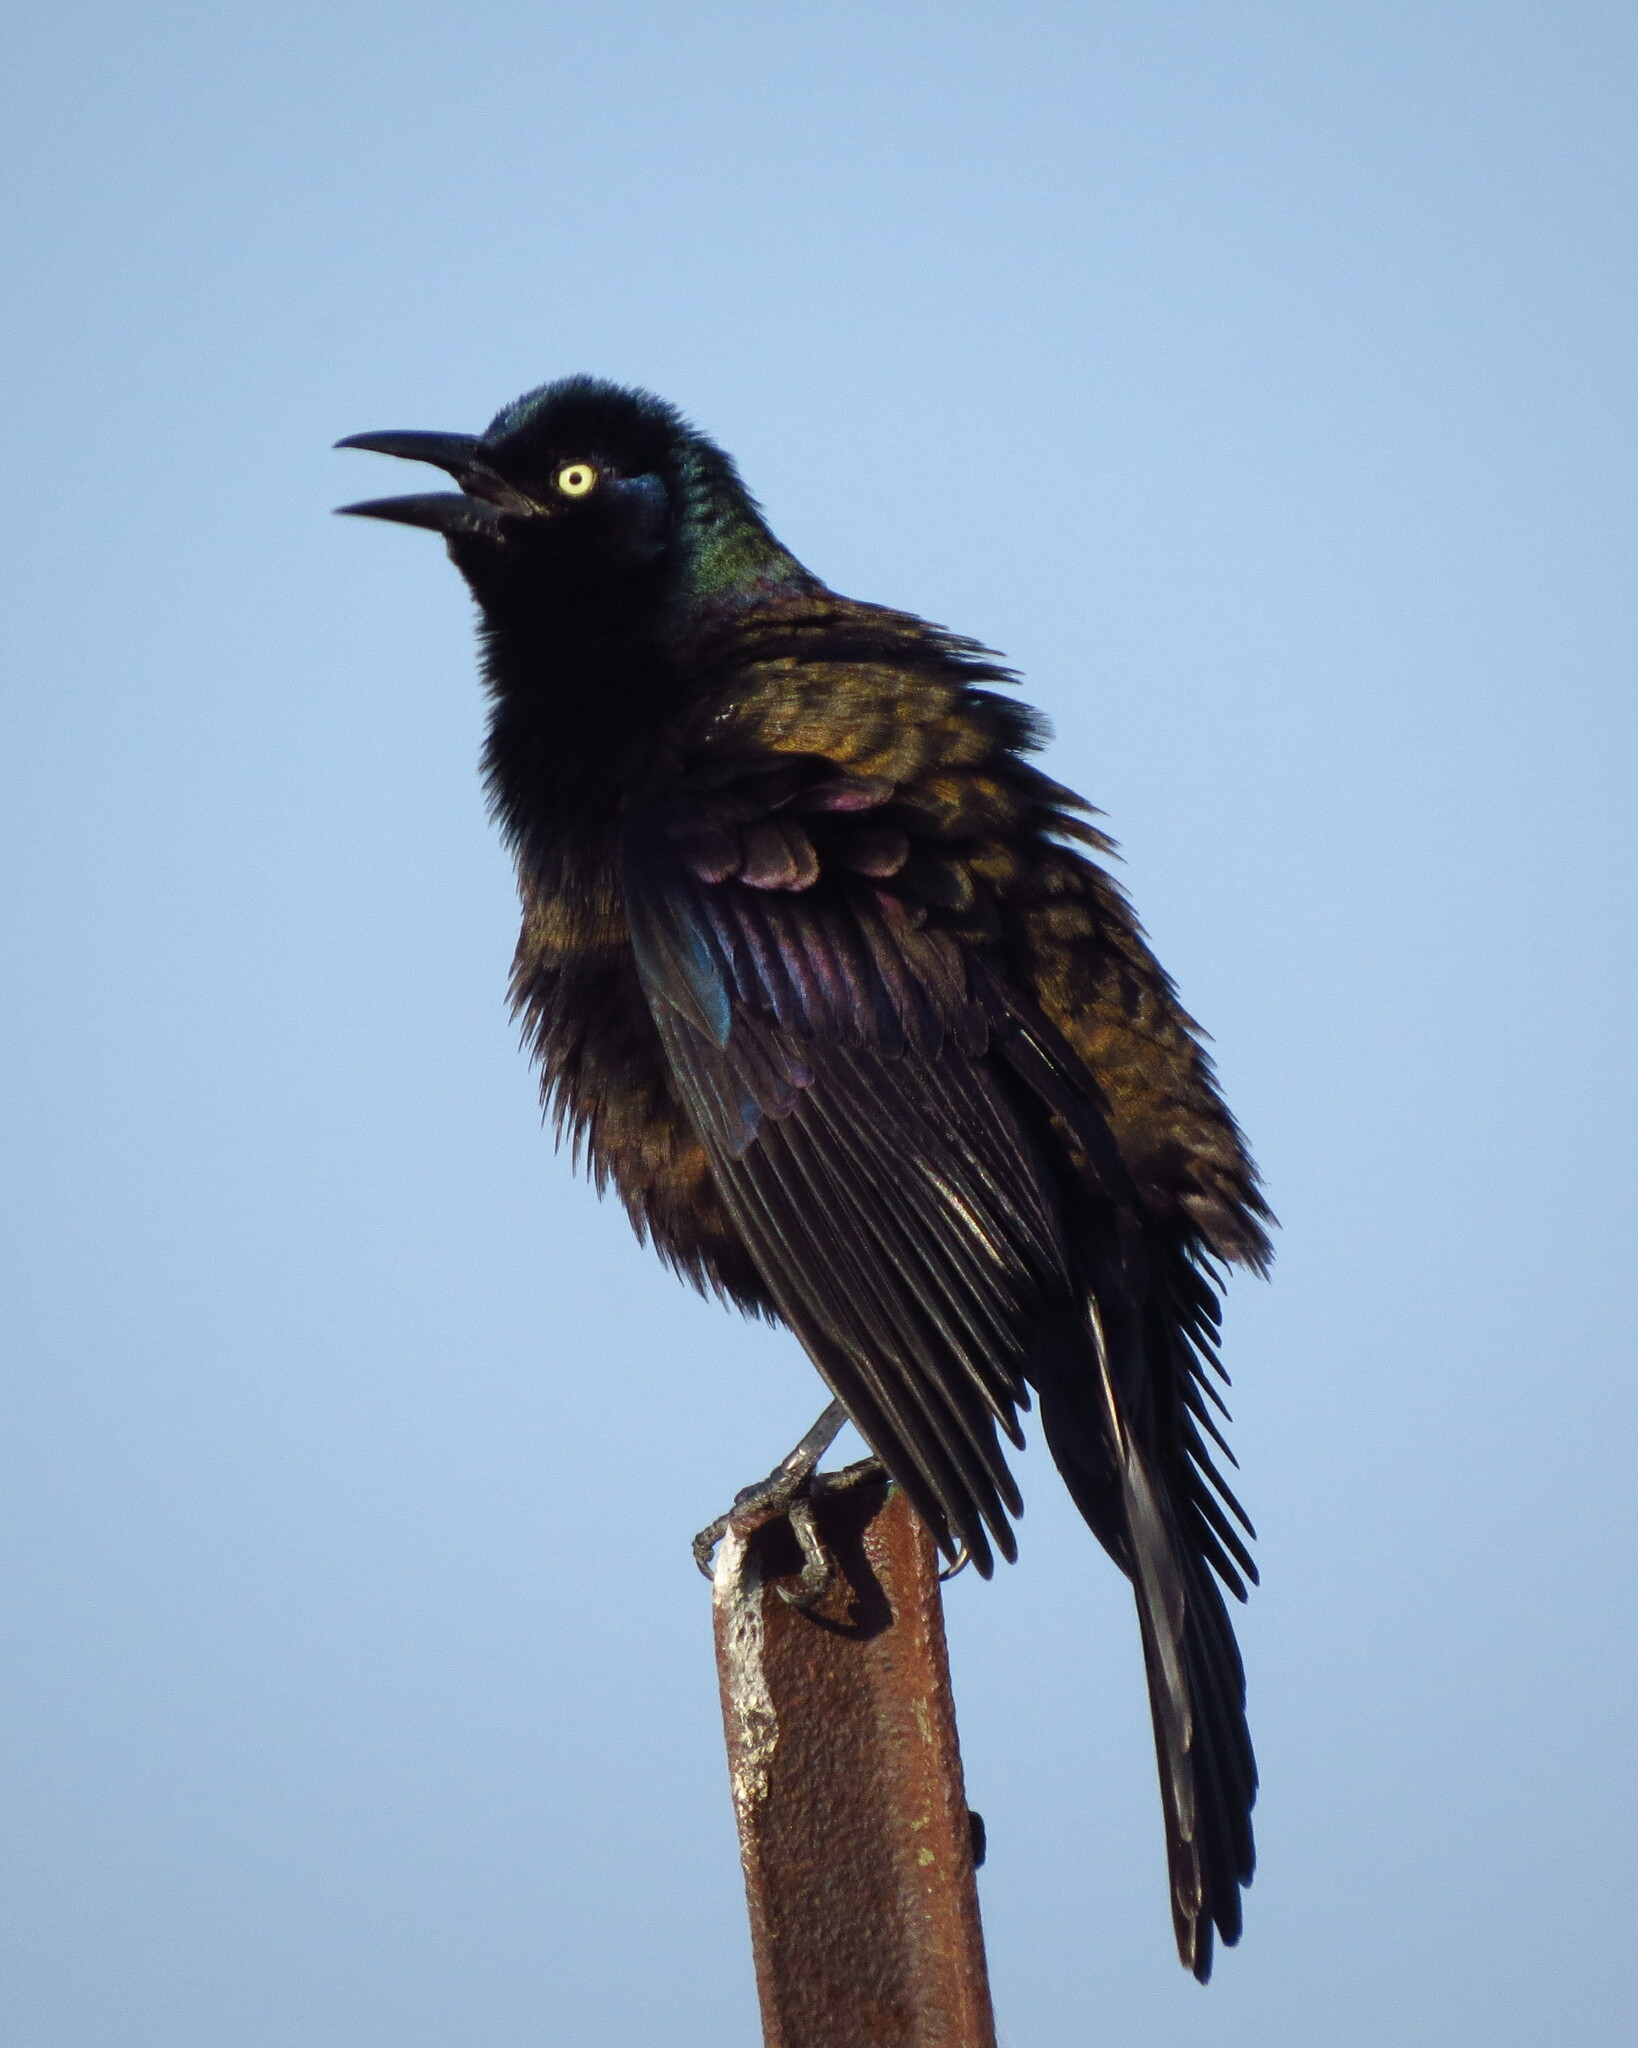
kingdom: Animalia
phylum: Chordata
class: Aves
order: Passeriformes
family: Icteridae
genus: Quiscalus
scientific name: Quiscalus quiscula
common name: Common grackle
